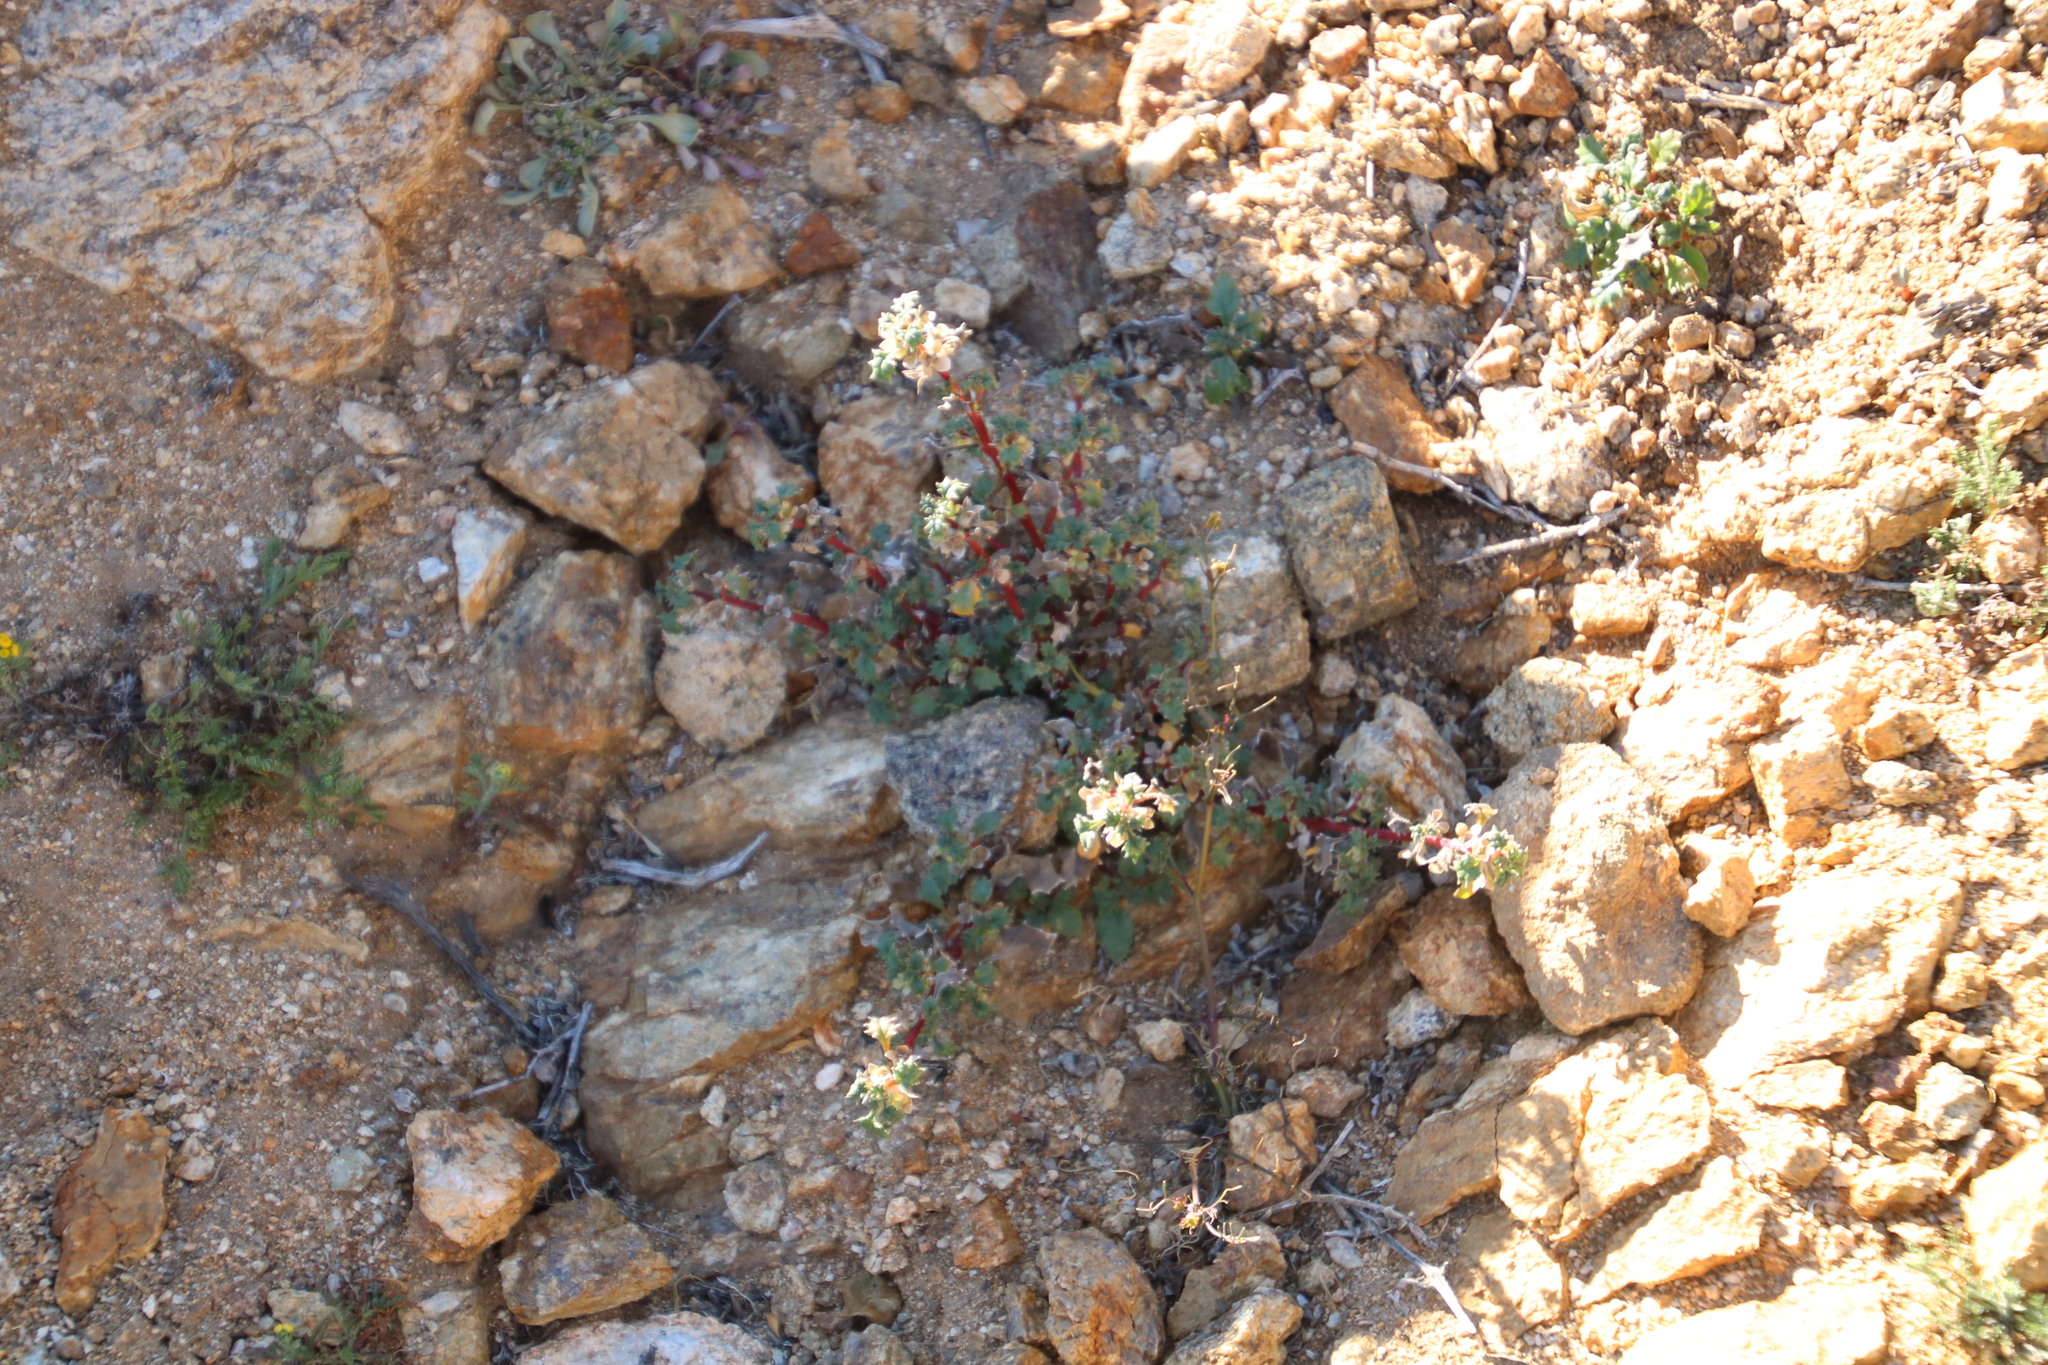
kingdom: Plantae
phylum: Tracheophyta
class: Magnoliopsida
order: Rosales
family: Urticaceae
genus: Forsskaolea
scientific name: Forsskaolea candida
